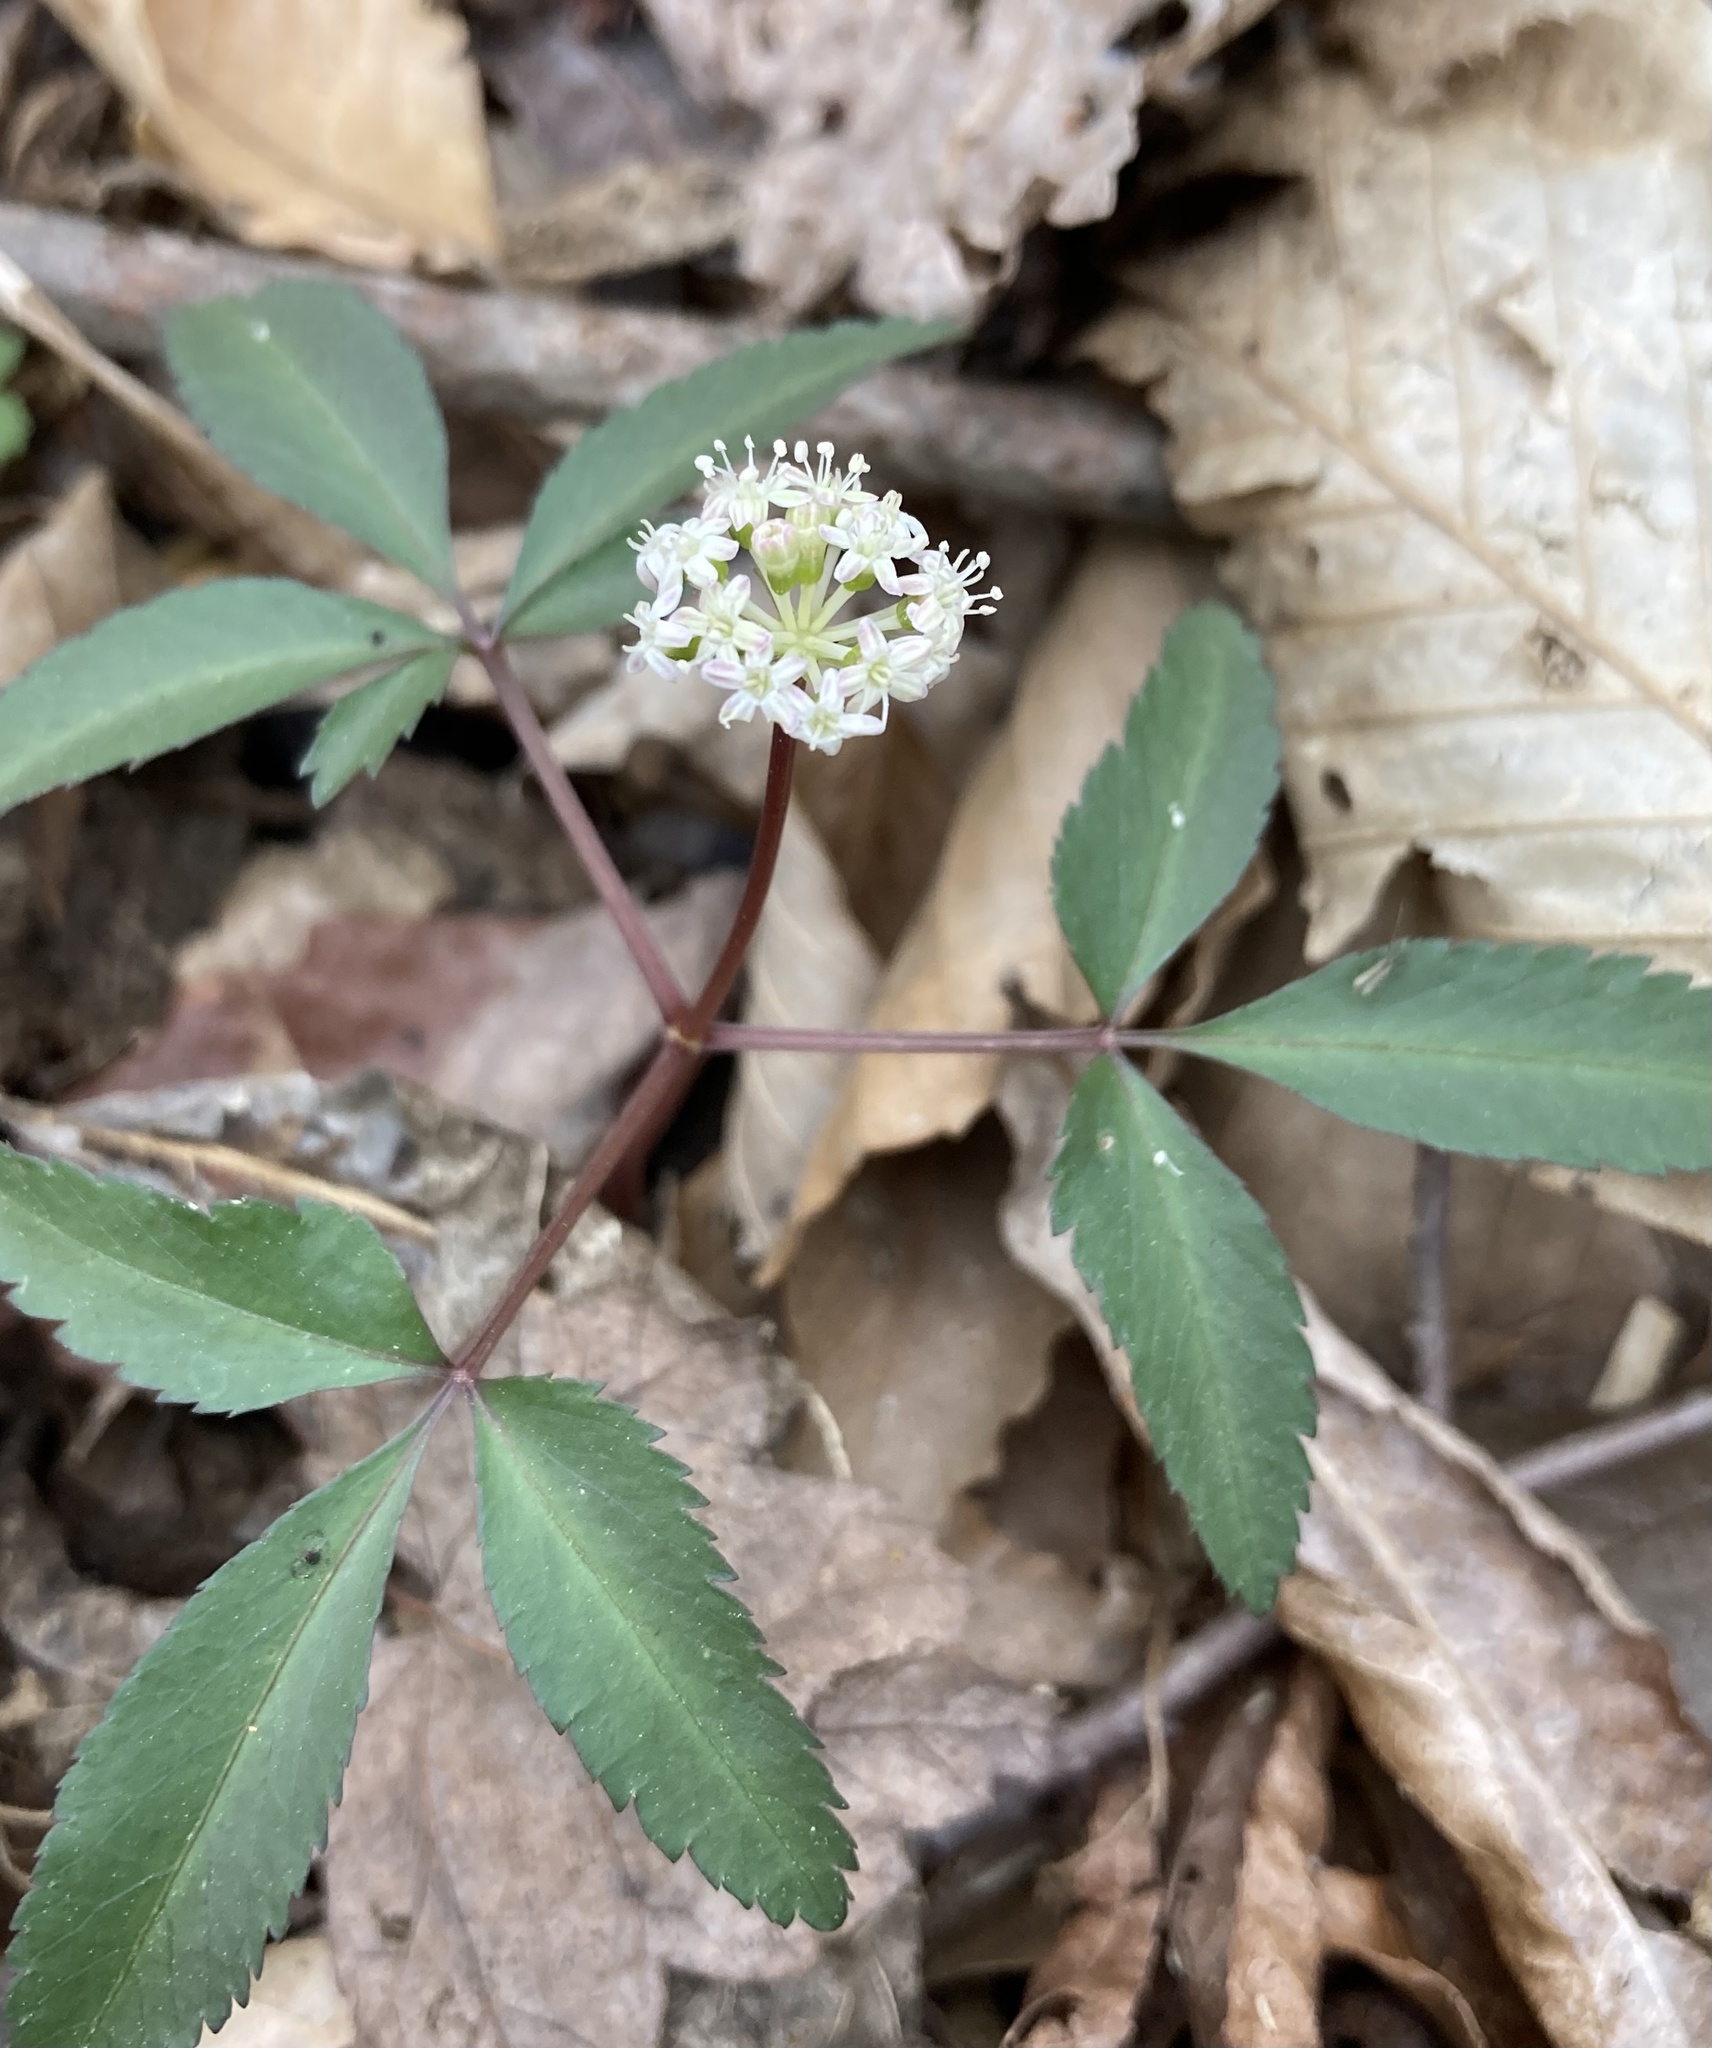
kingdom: Plantae
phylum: Tracheophyta
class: Magnoliopsida
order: Apiales
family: Araliaceae
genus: Panax
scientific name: Panax trifolius
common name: Dwarf ginseng
